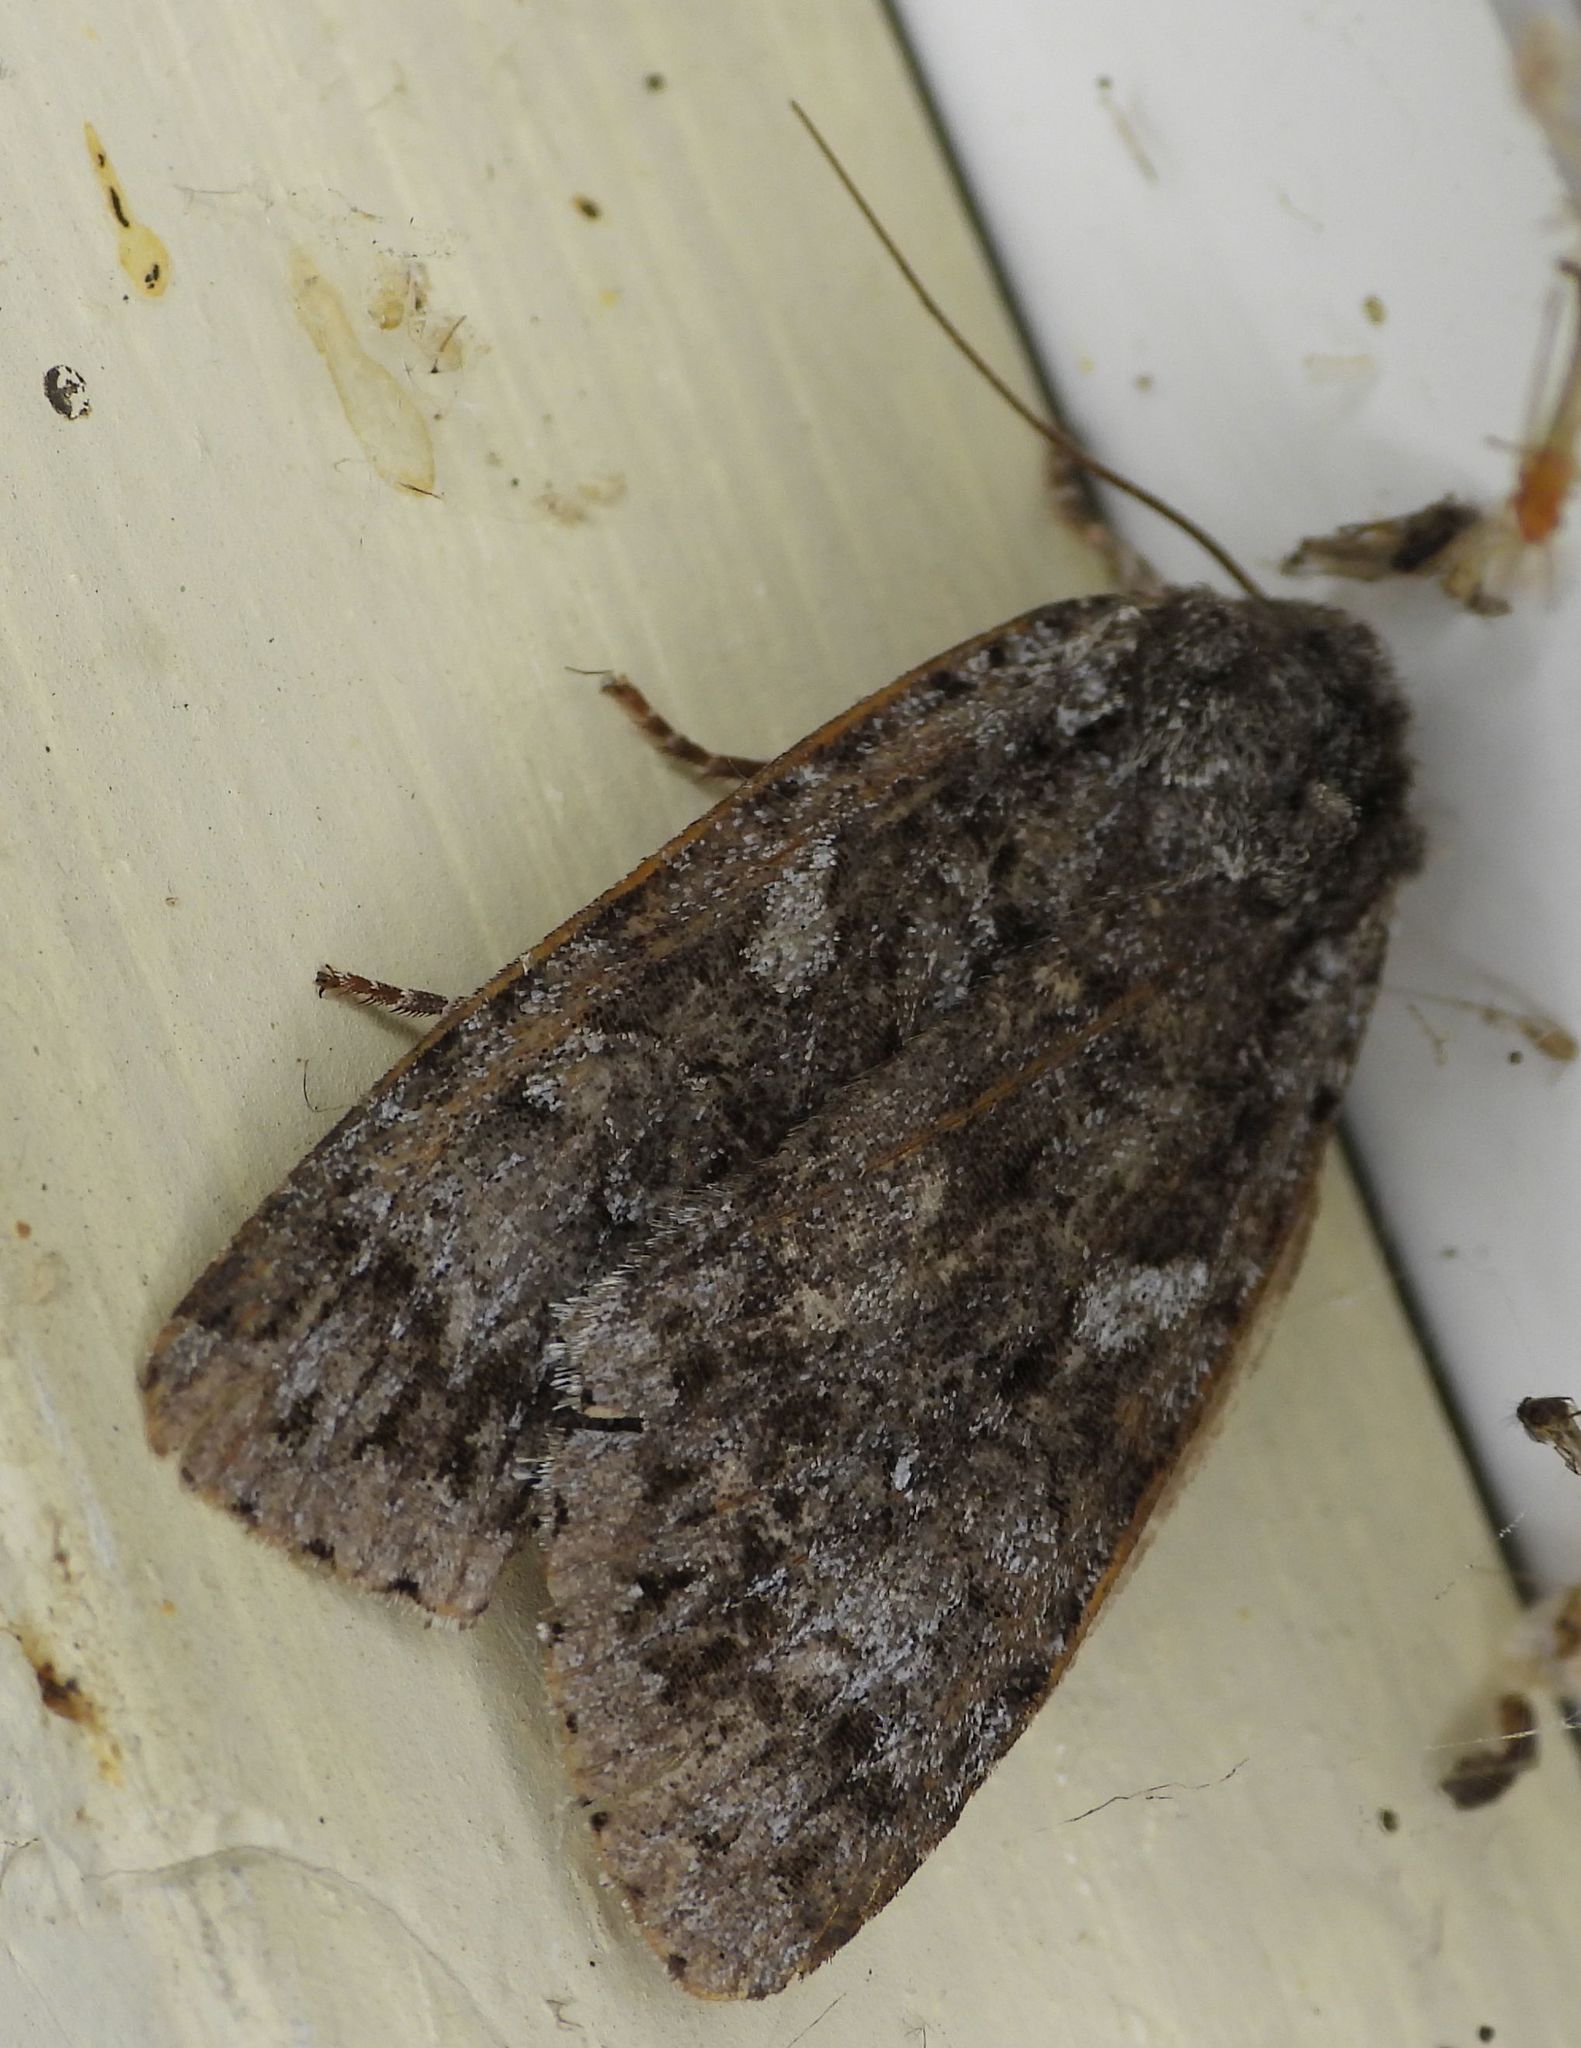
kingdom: Animalia
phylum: Arthropoda
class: Insecta
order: Lepidoptera
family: Noctuidae
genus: Eurois
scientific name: Eurois occulta
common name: Great brocade
